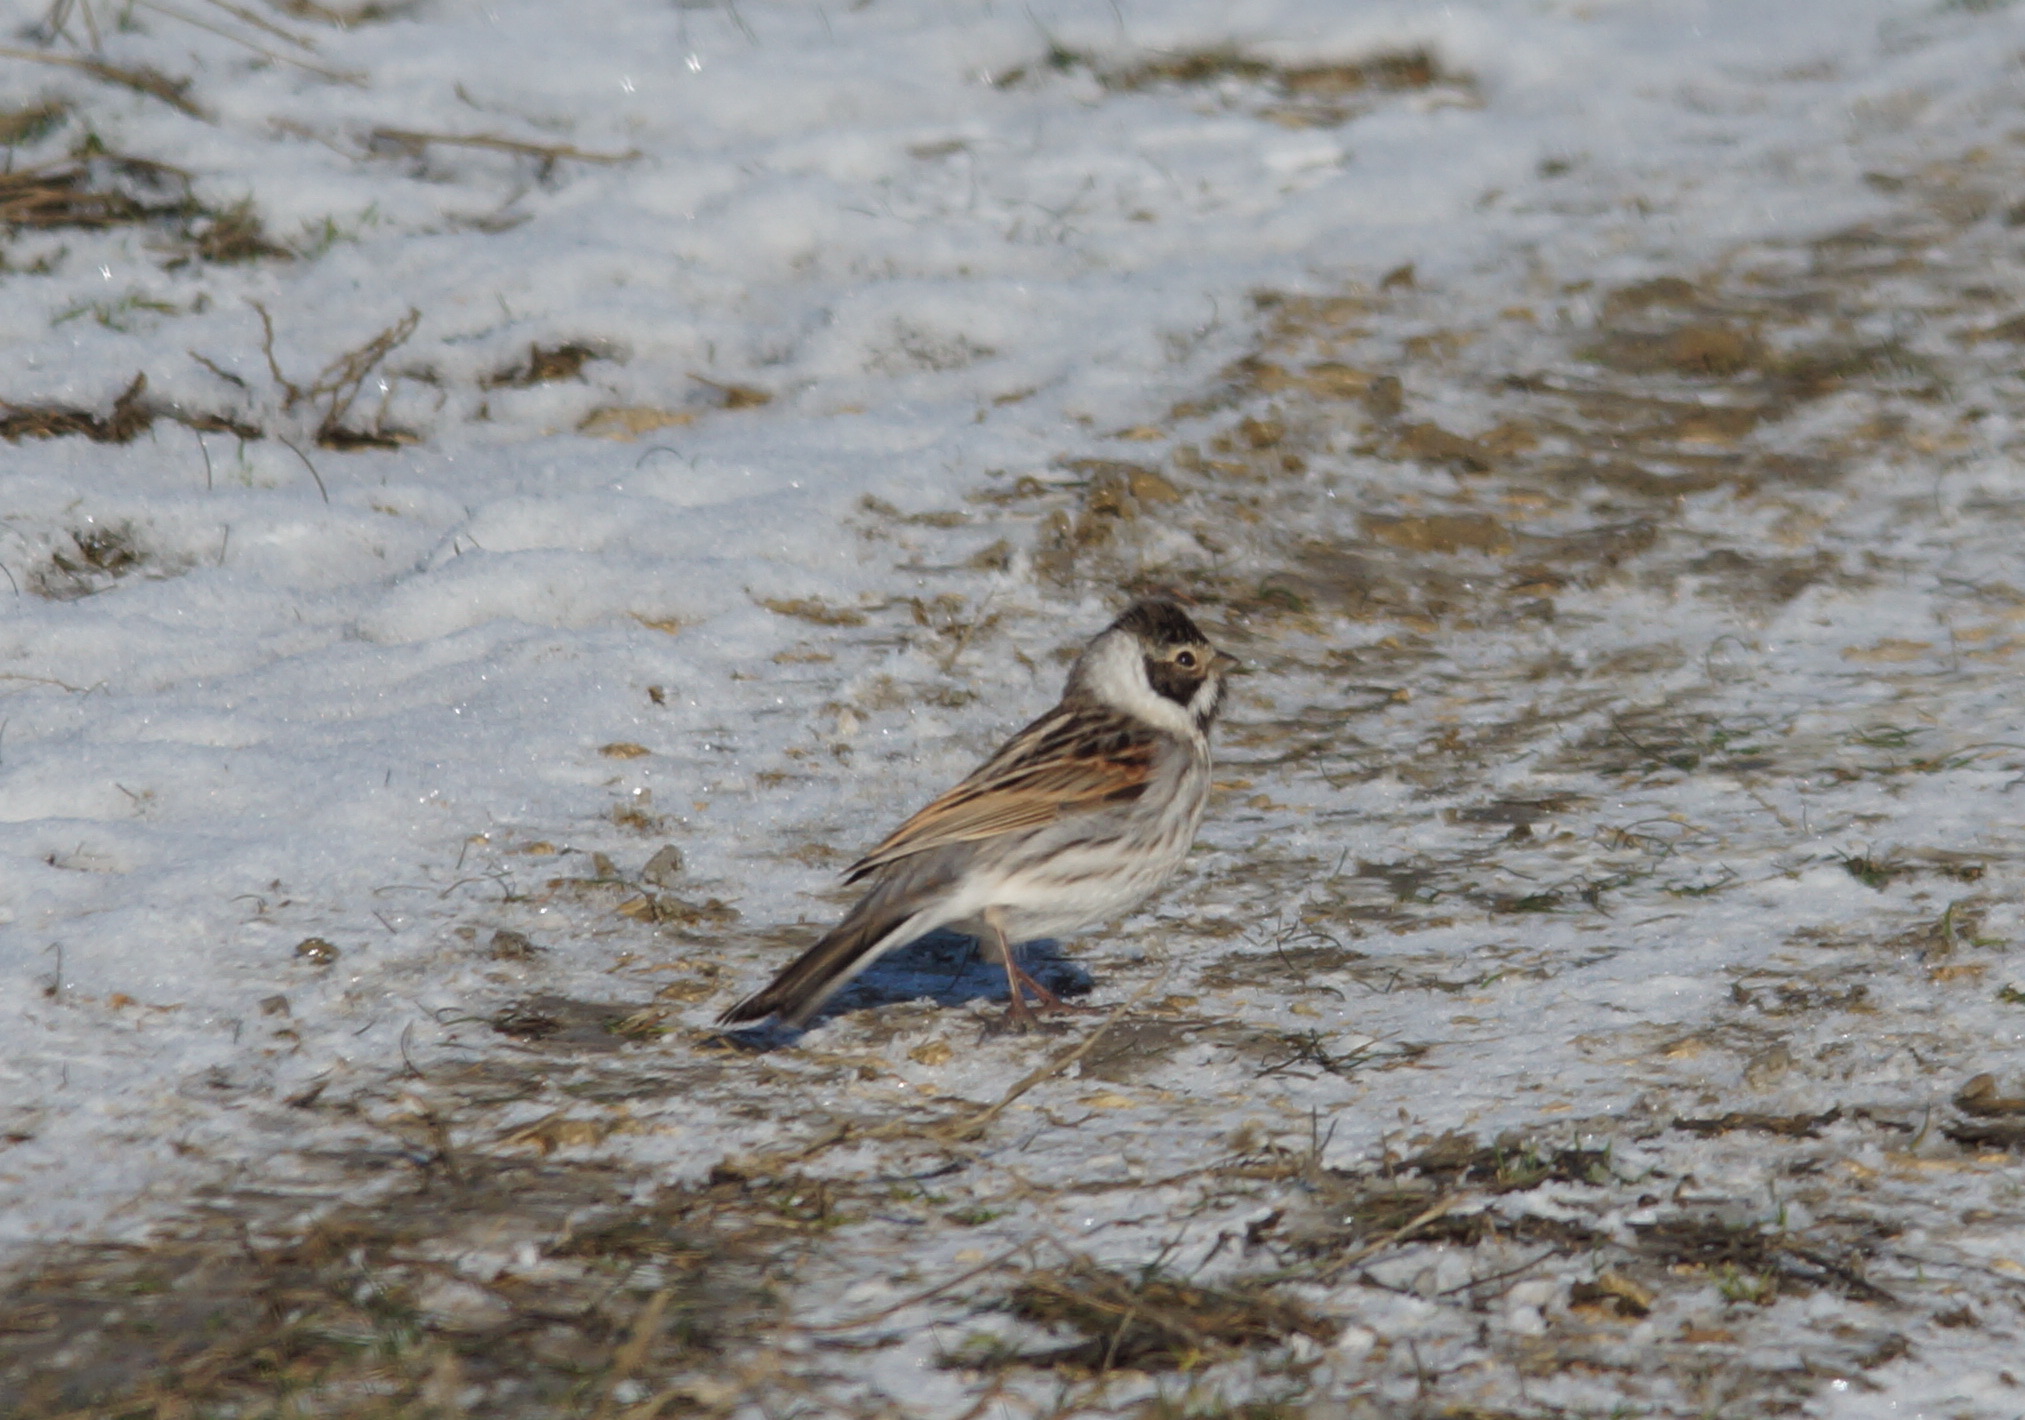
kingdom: Animalia
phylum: Chordata
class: Aves
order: Passeriformes
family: Emberizidae
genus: Emberiza
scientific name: Emberiza schoeniclus
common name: Reed bunting
